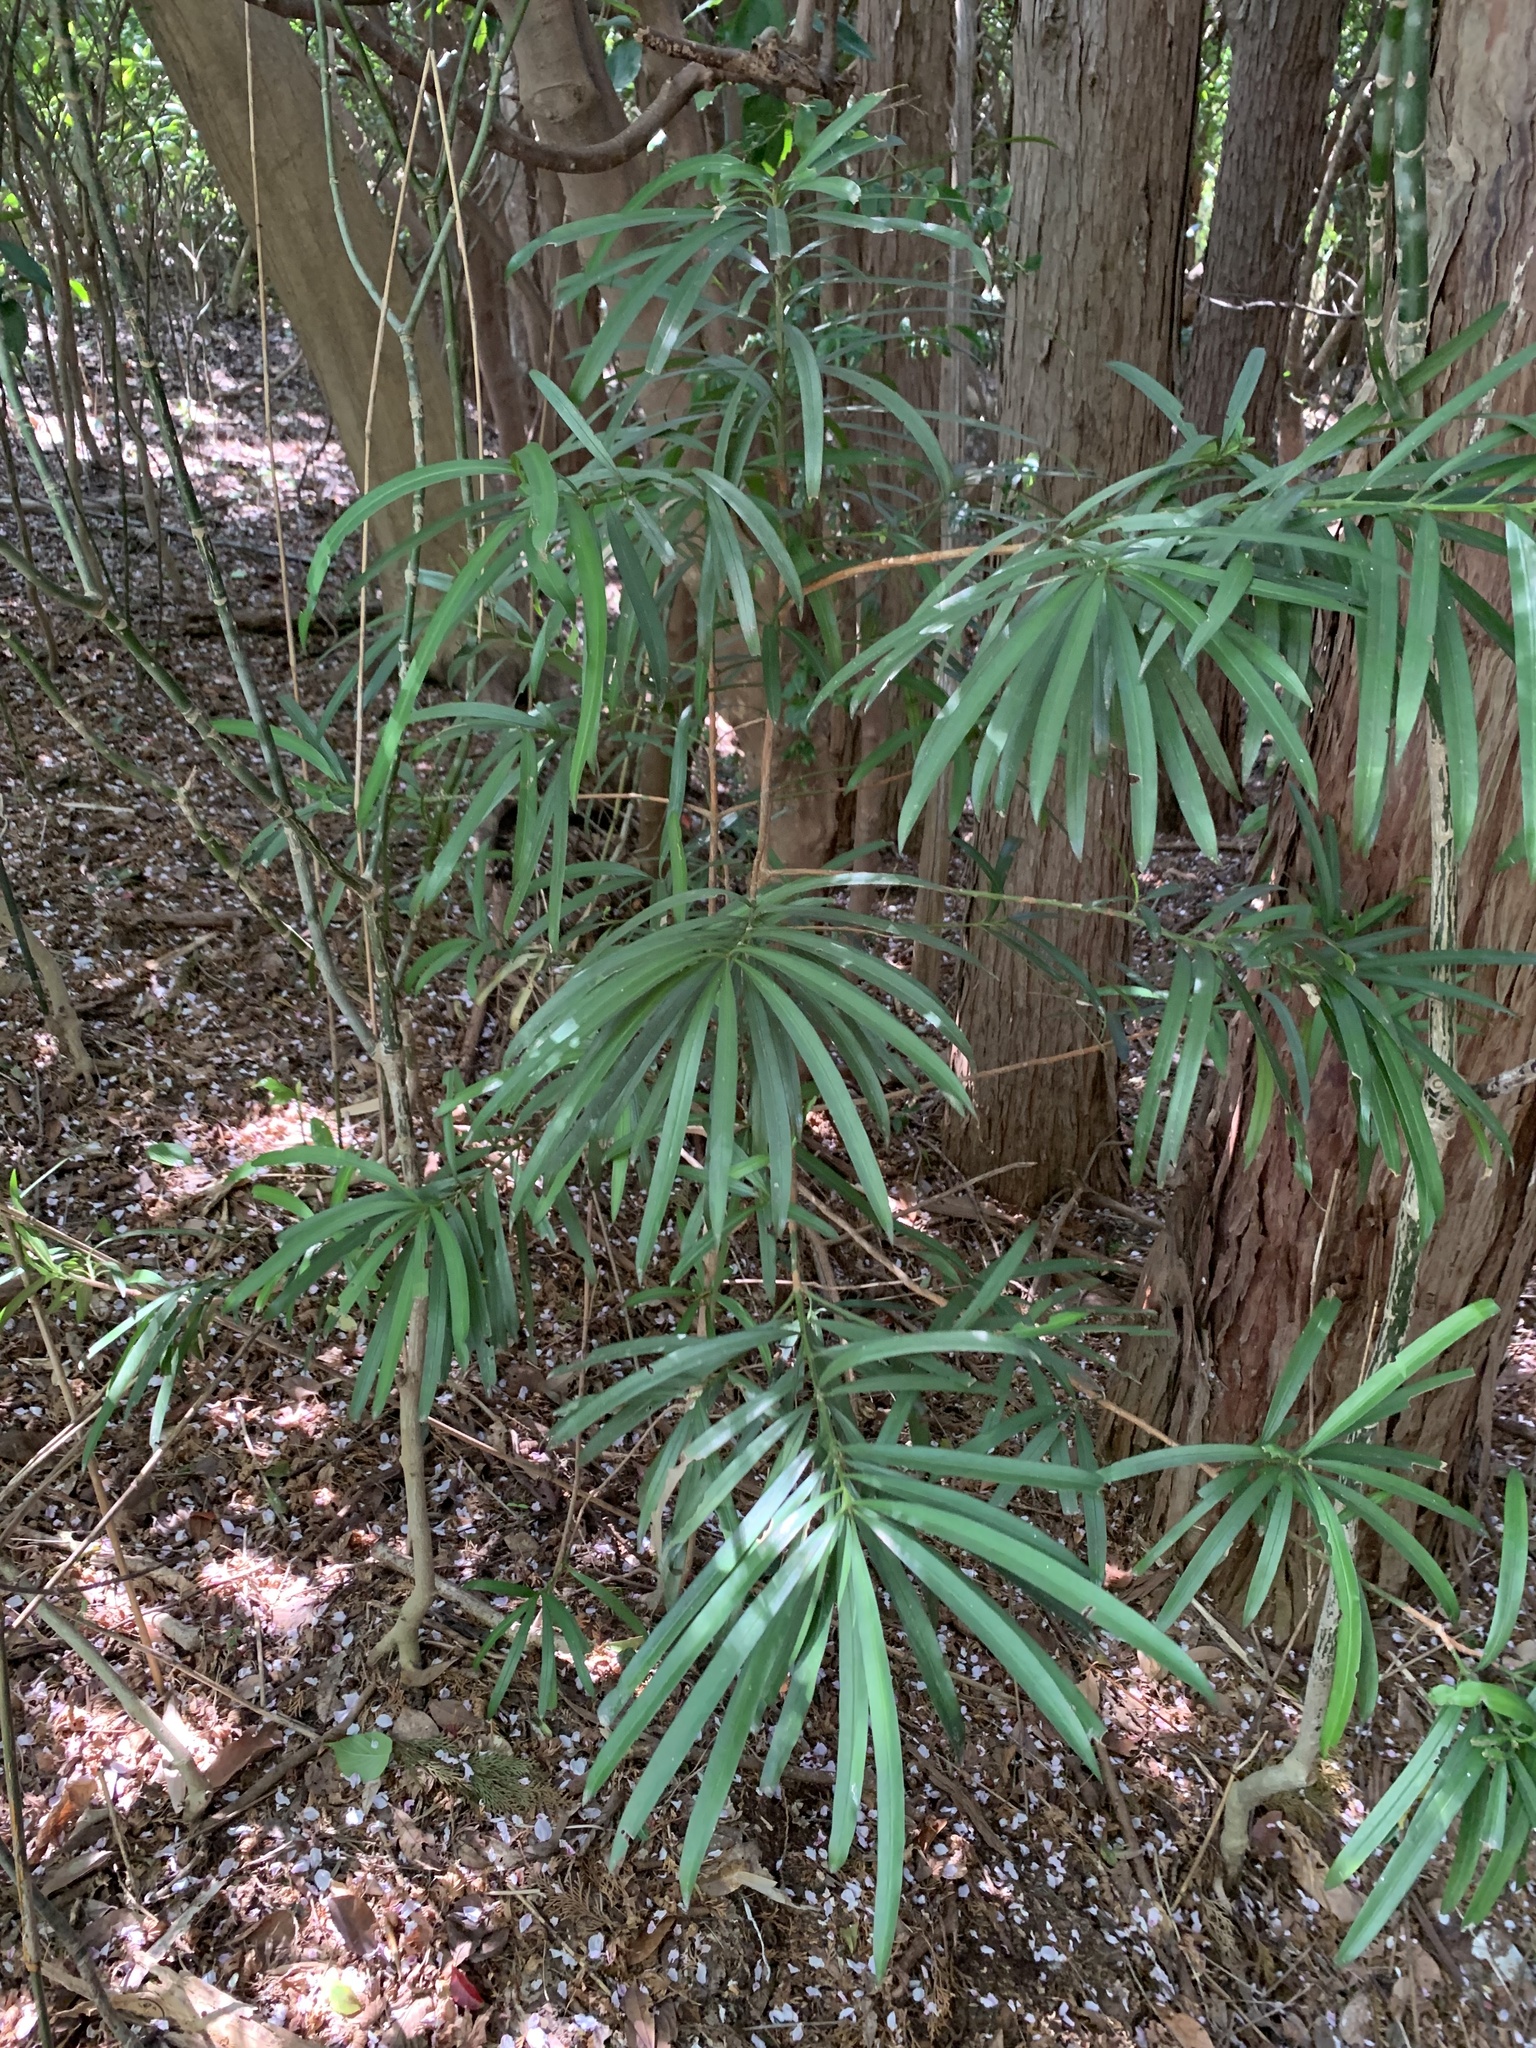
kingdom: Plantae
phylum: Tracheophyta
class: Pinopsida
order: Pinales
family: Podocarpaceae
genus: Podocarpus
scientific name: Podocarpus macrophyllus
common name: Japanese yew
